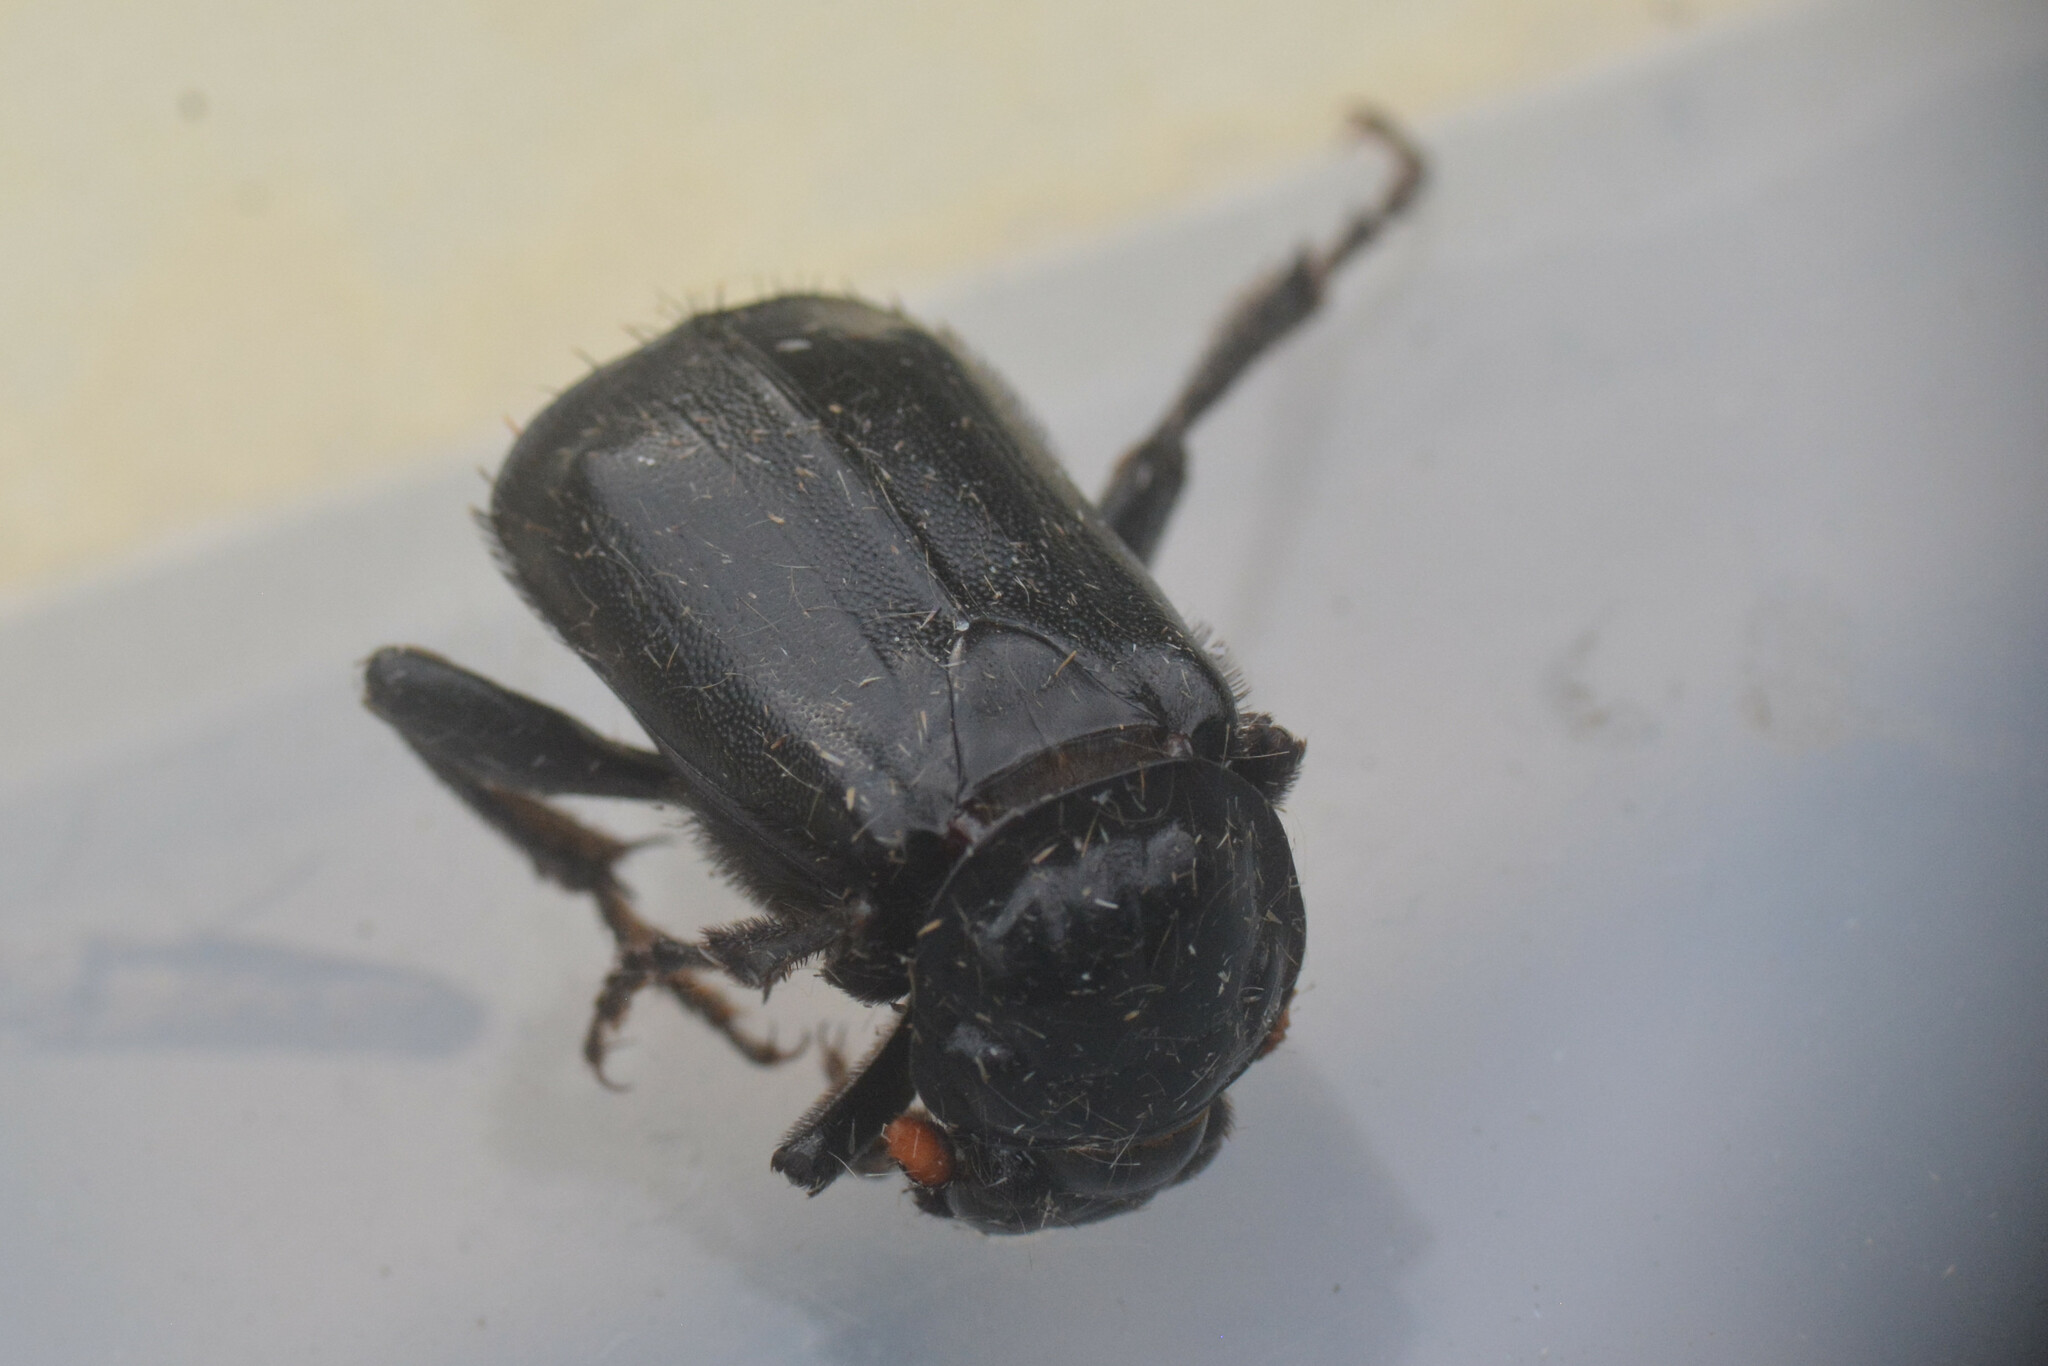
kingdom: Animalia
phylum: Arthropoda
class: Insecta
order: Coleoptera
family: Staphylinidae
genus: Nicrophorus
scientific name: Nicrophorus humator
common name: Black sexton beetle
